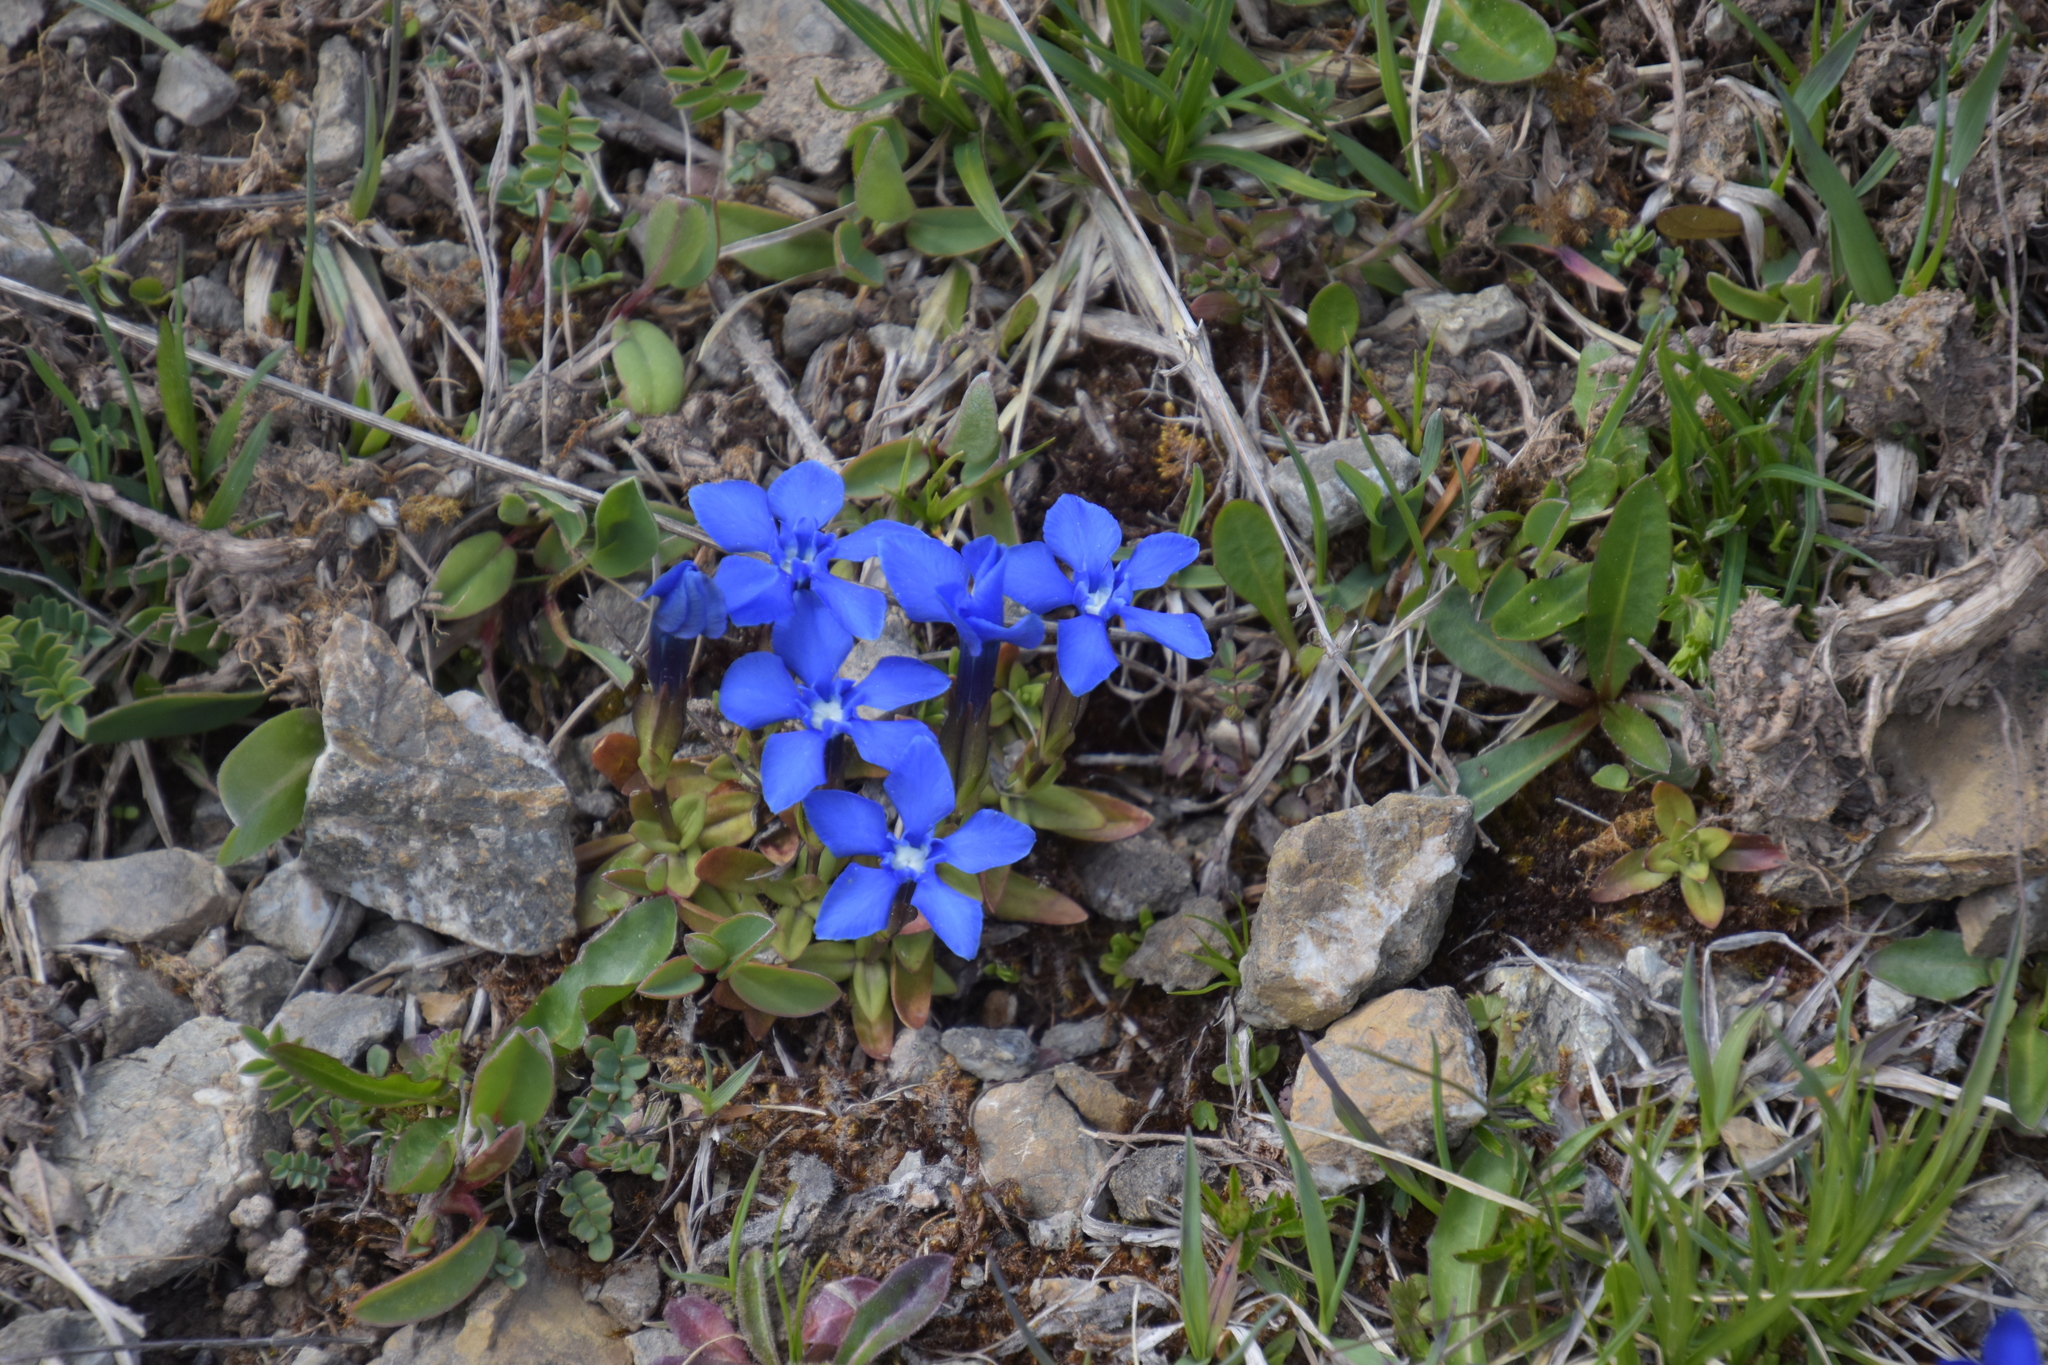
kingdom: Plantae
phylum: Tracheophyta
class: Magnoliopsida
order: Gentianales
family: Gentianaceae
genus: Gentiana
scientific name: Gentiana verna
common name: Spring gentian
